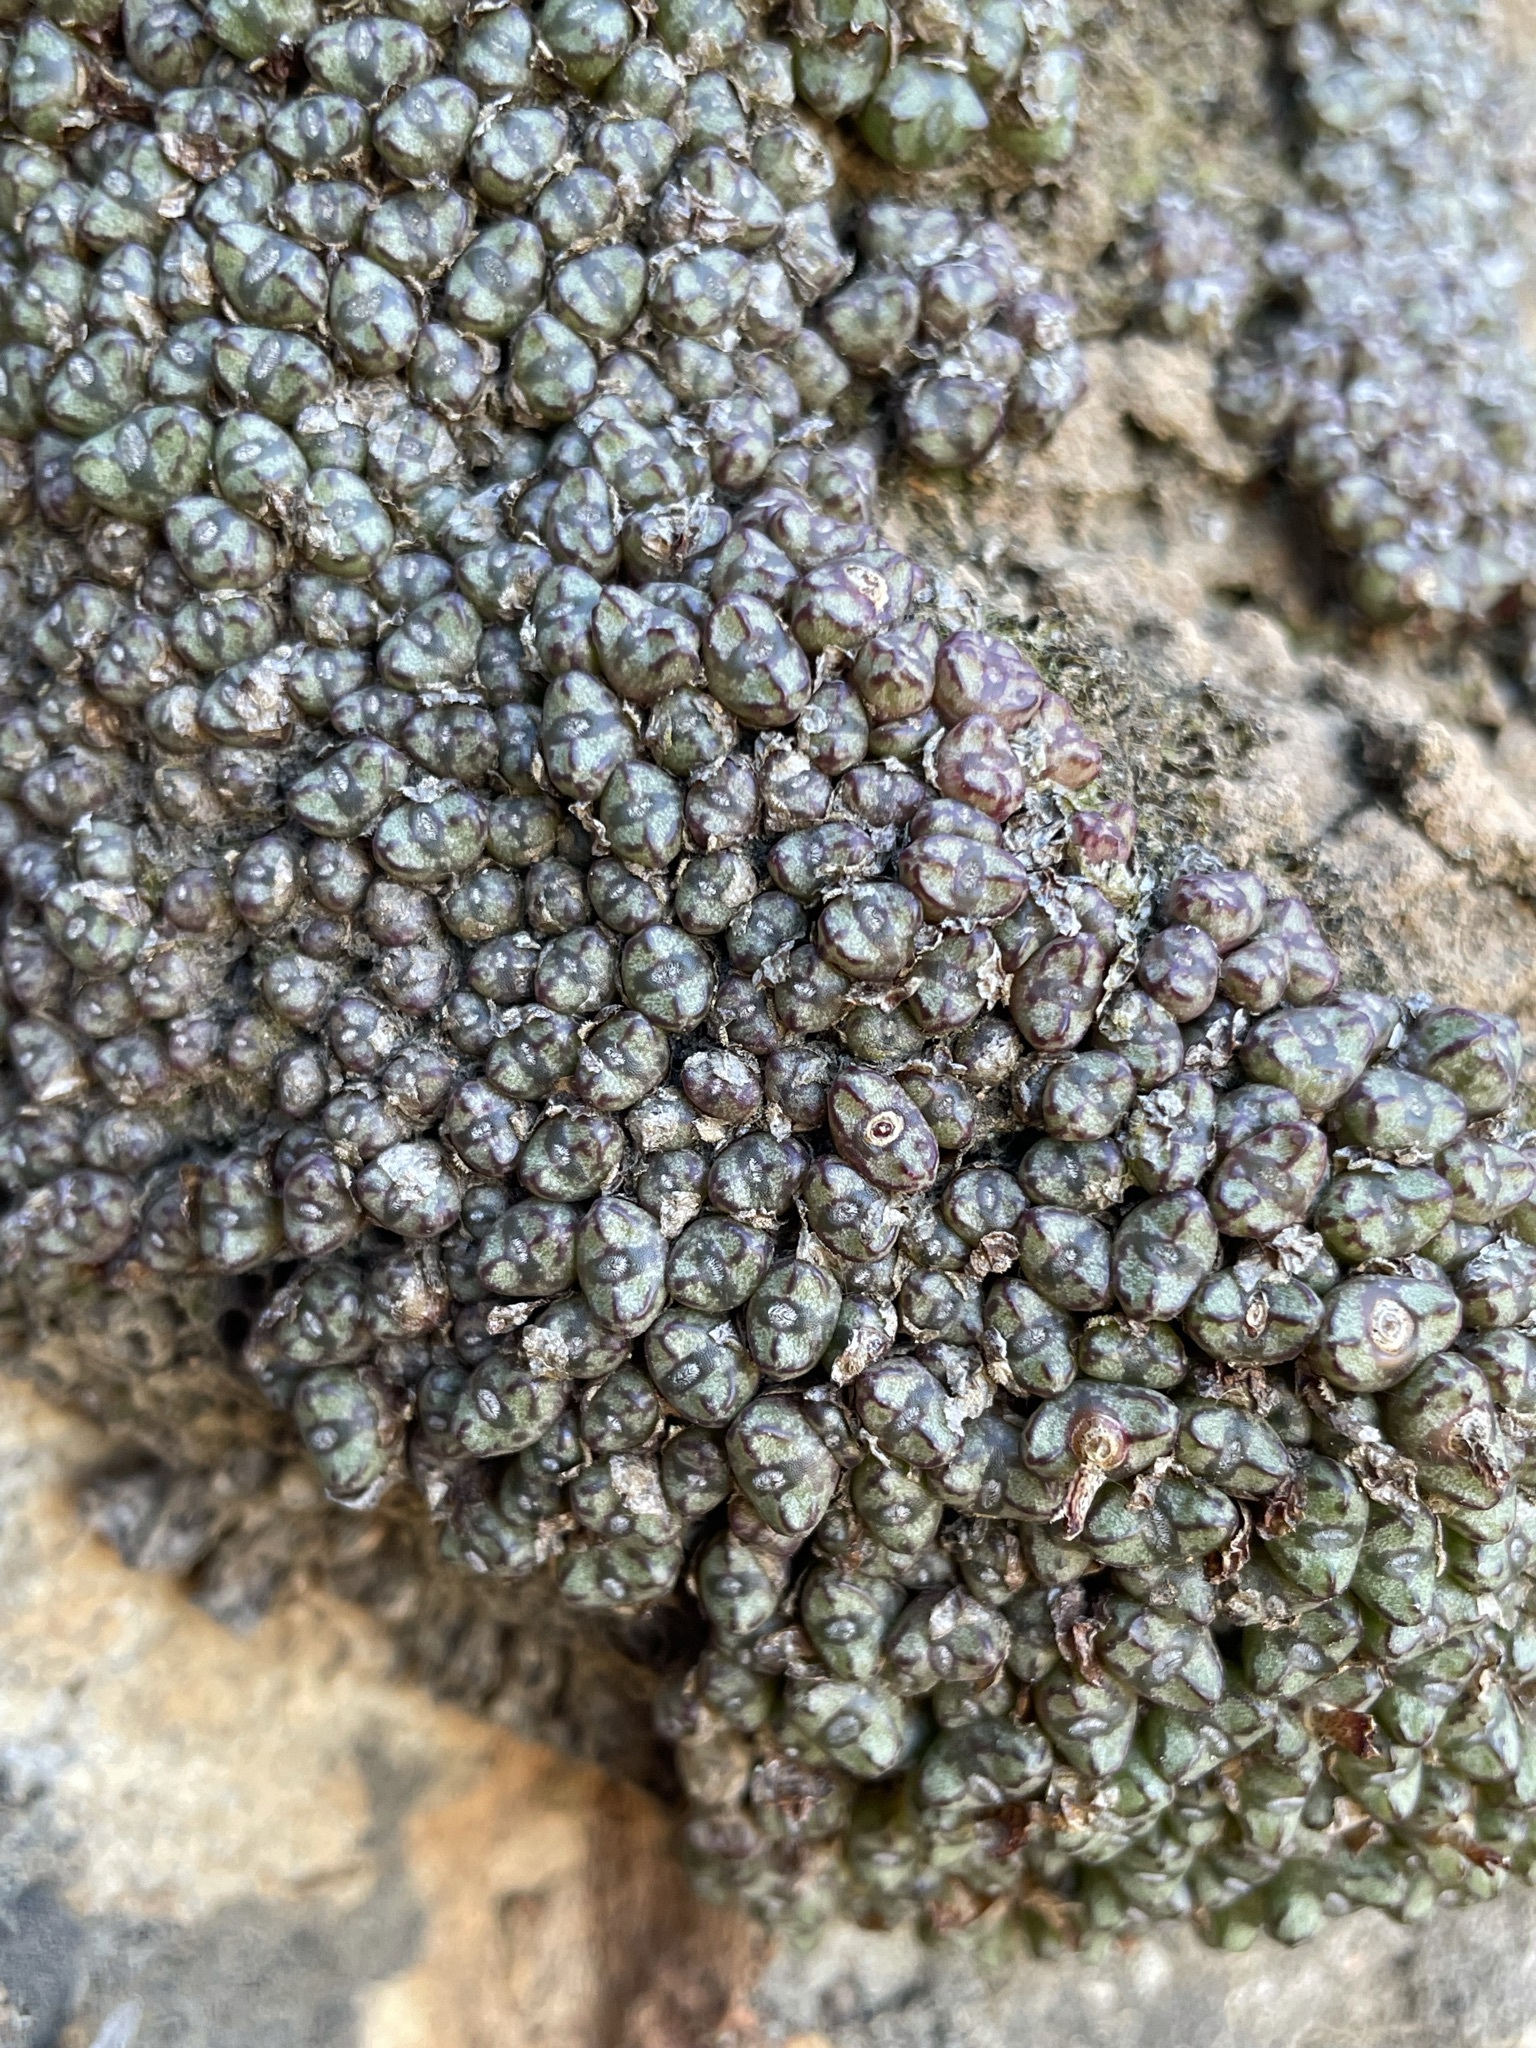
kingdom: Plantae
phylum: Tracheophyta
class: Magnoliopsida
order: Caryophyllales
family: Aizoaceae
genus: Conophytum
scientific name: Conophytum luckhoffii
